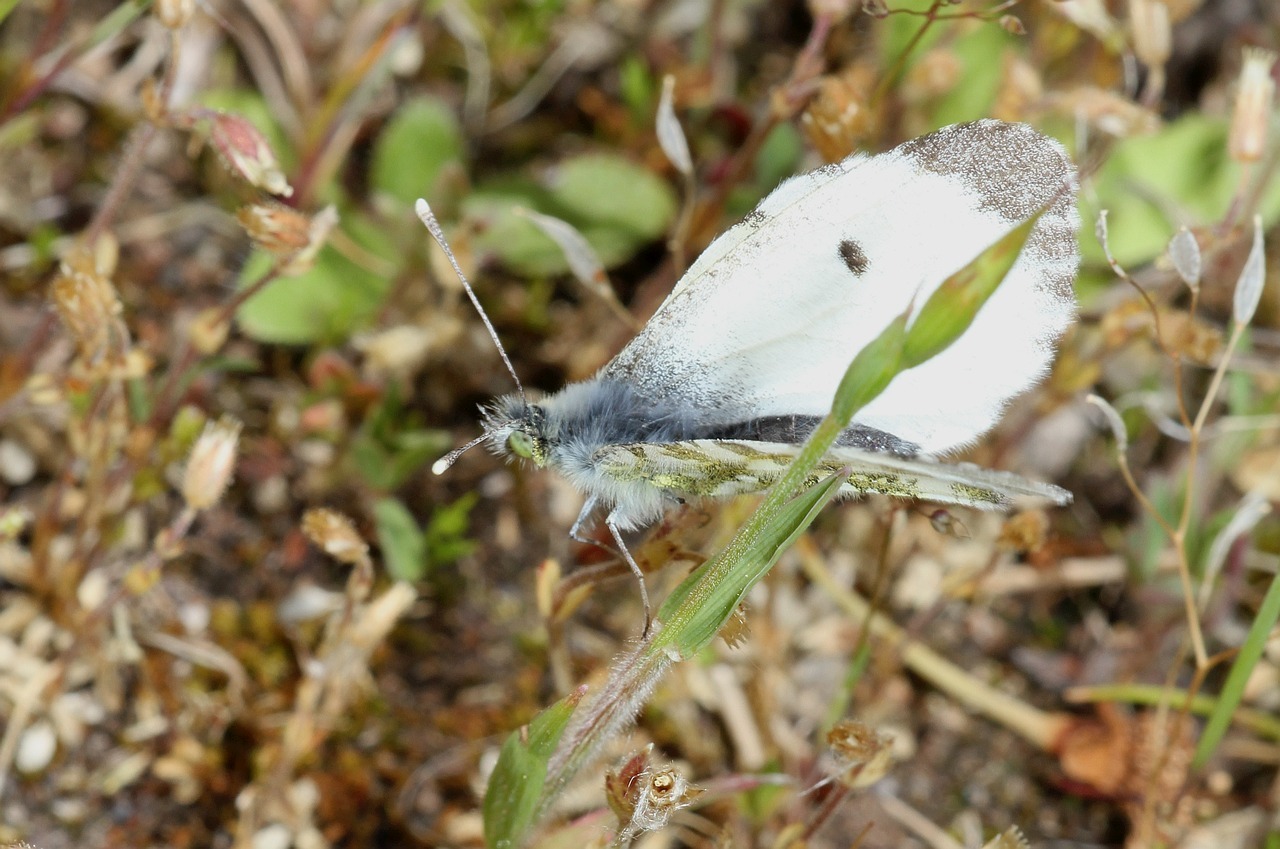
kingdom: Animalia
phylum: Arthropoda
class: Insecta
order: Lepidoptera
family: Pieridae
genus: Anthocharis
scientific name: Anthocharis cardamines
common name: Orange-tip
